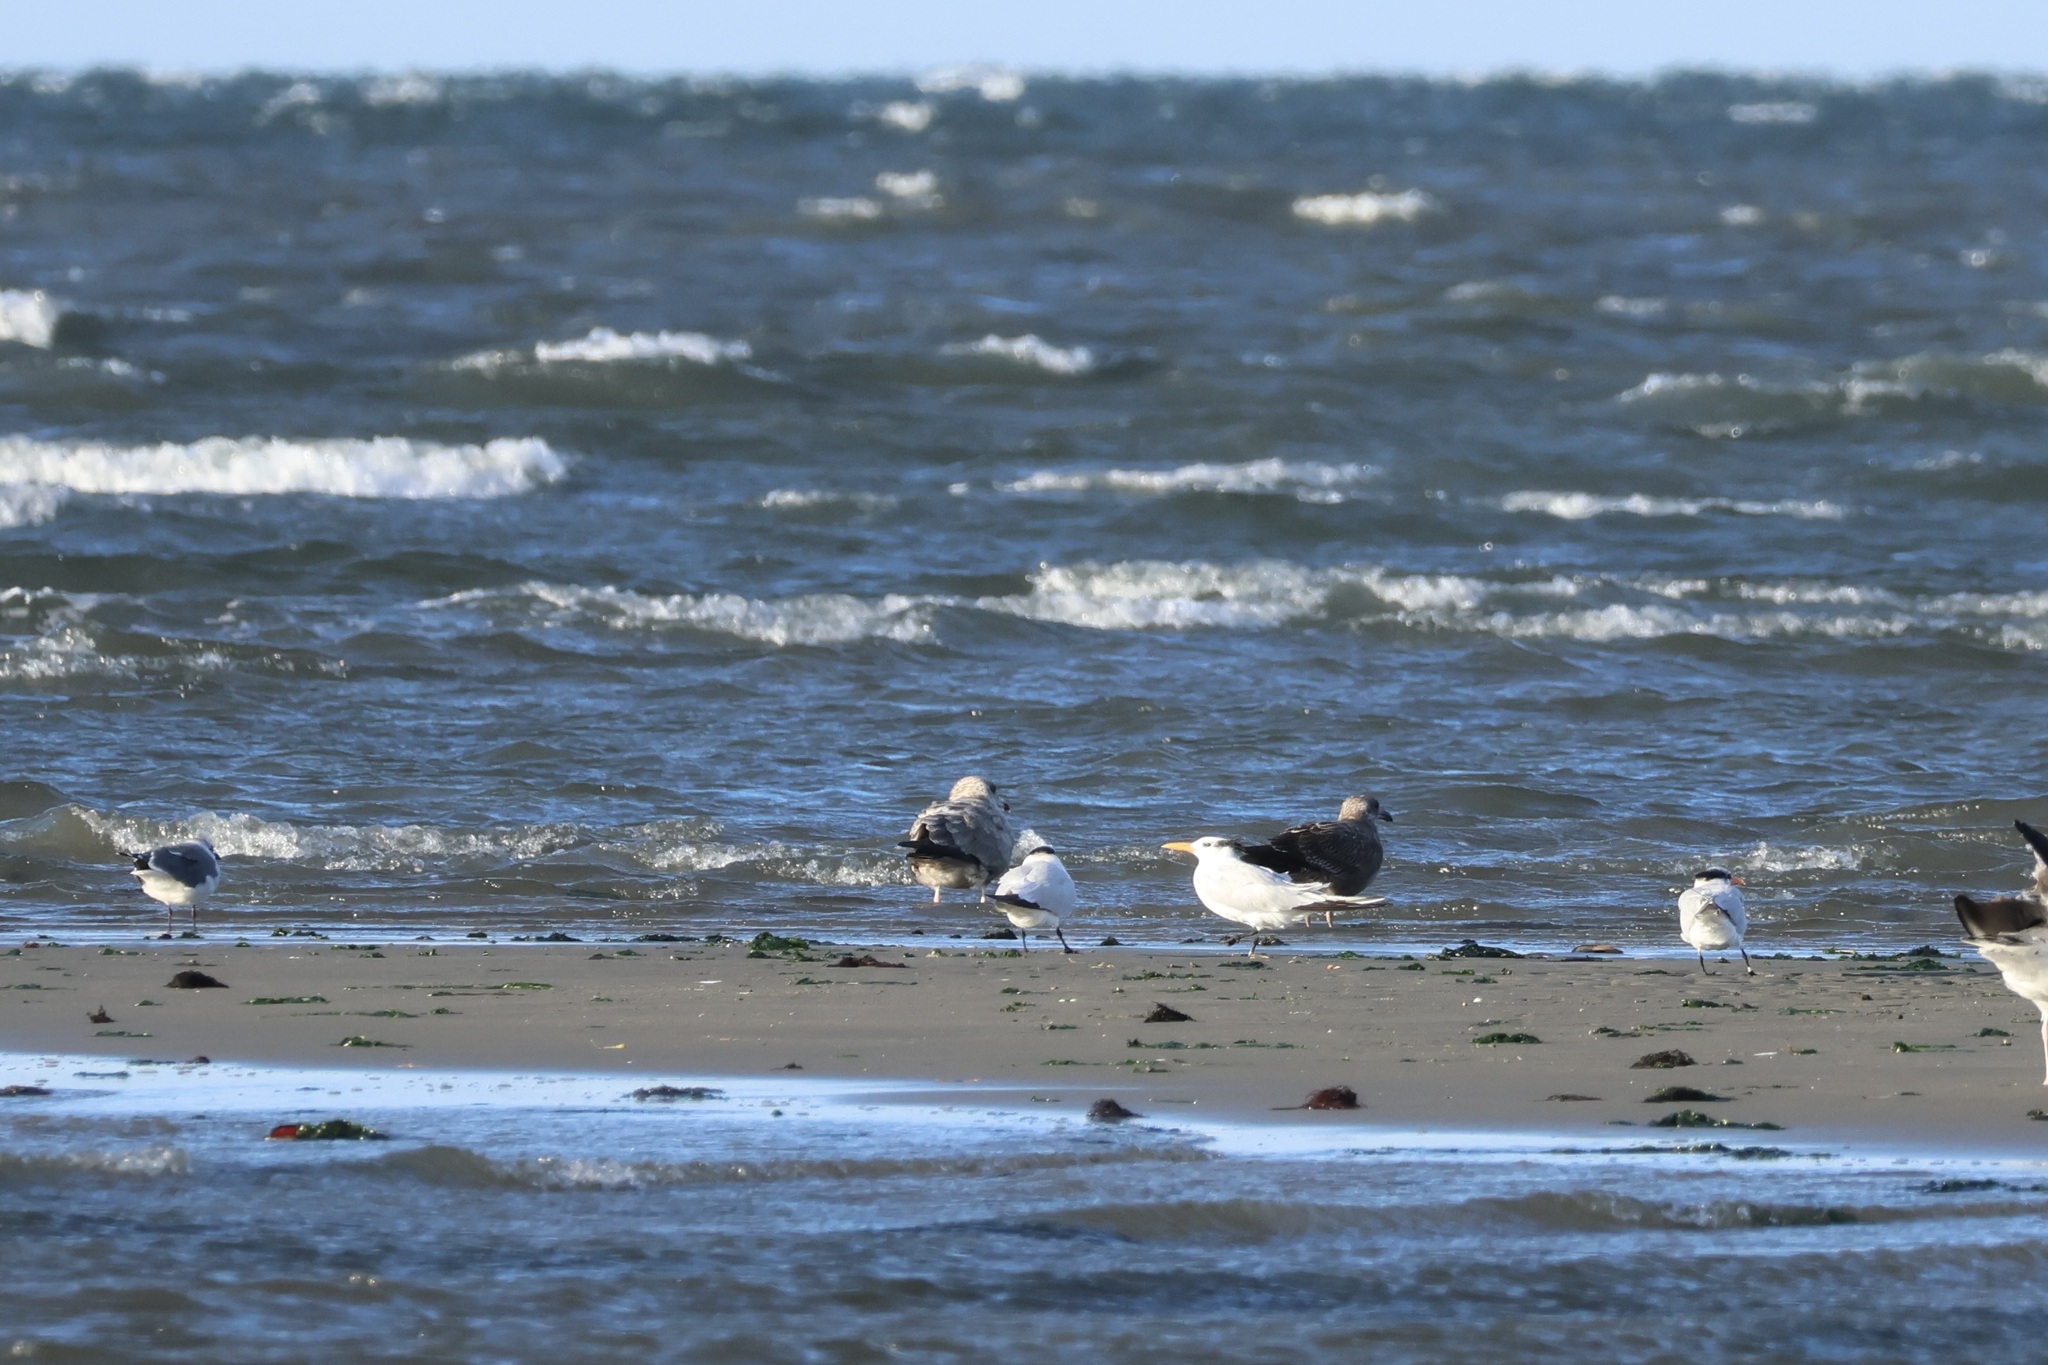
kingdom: Animalia
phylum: Chordata
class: Aves
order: Charadriiformes
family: Laridae
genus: Thalasseus
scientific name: Thalasseus maximus
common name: Royal tern
